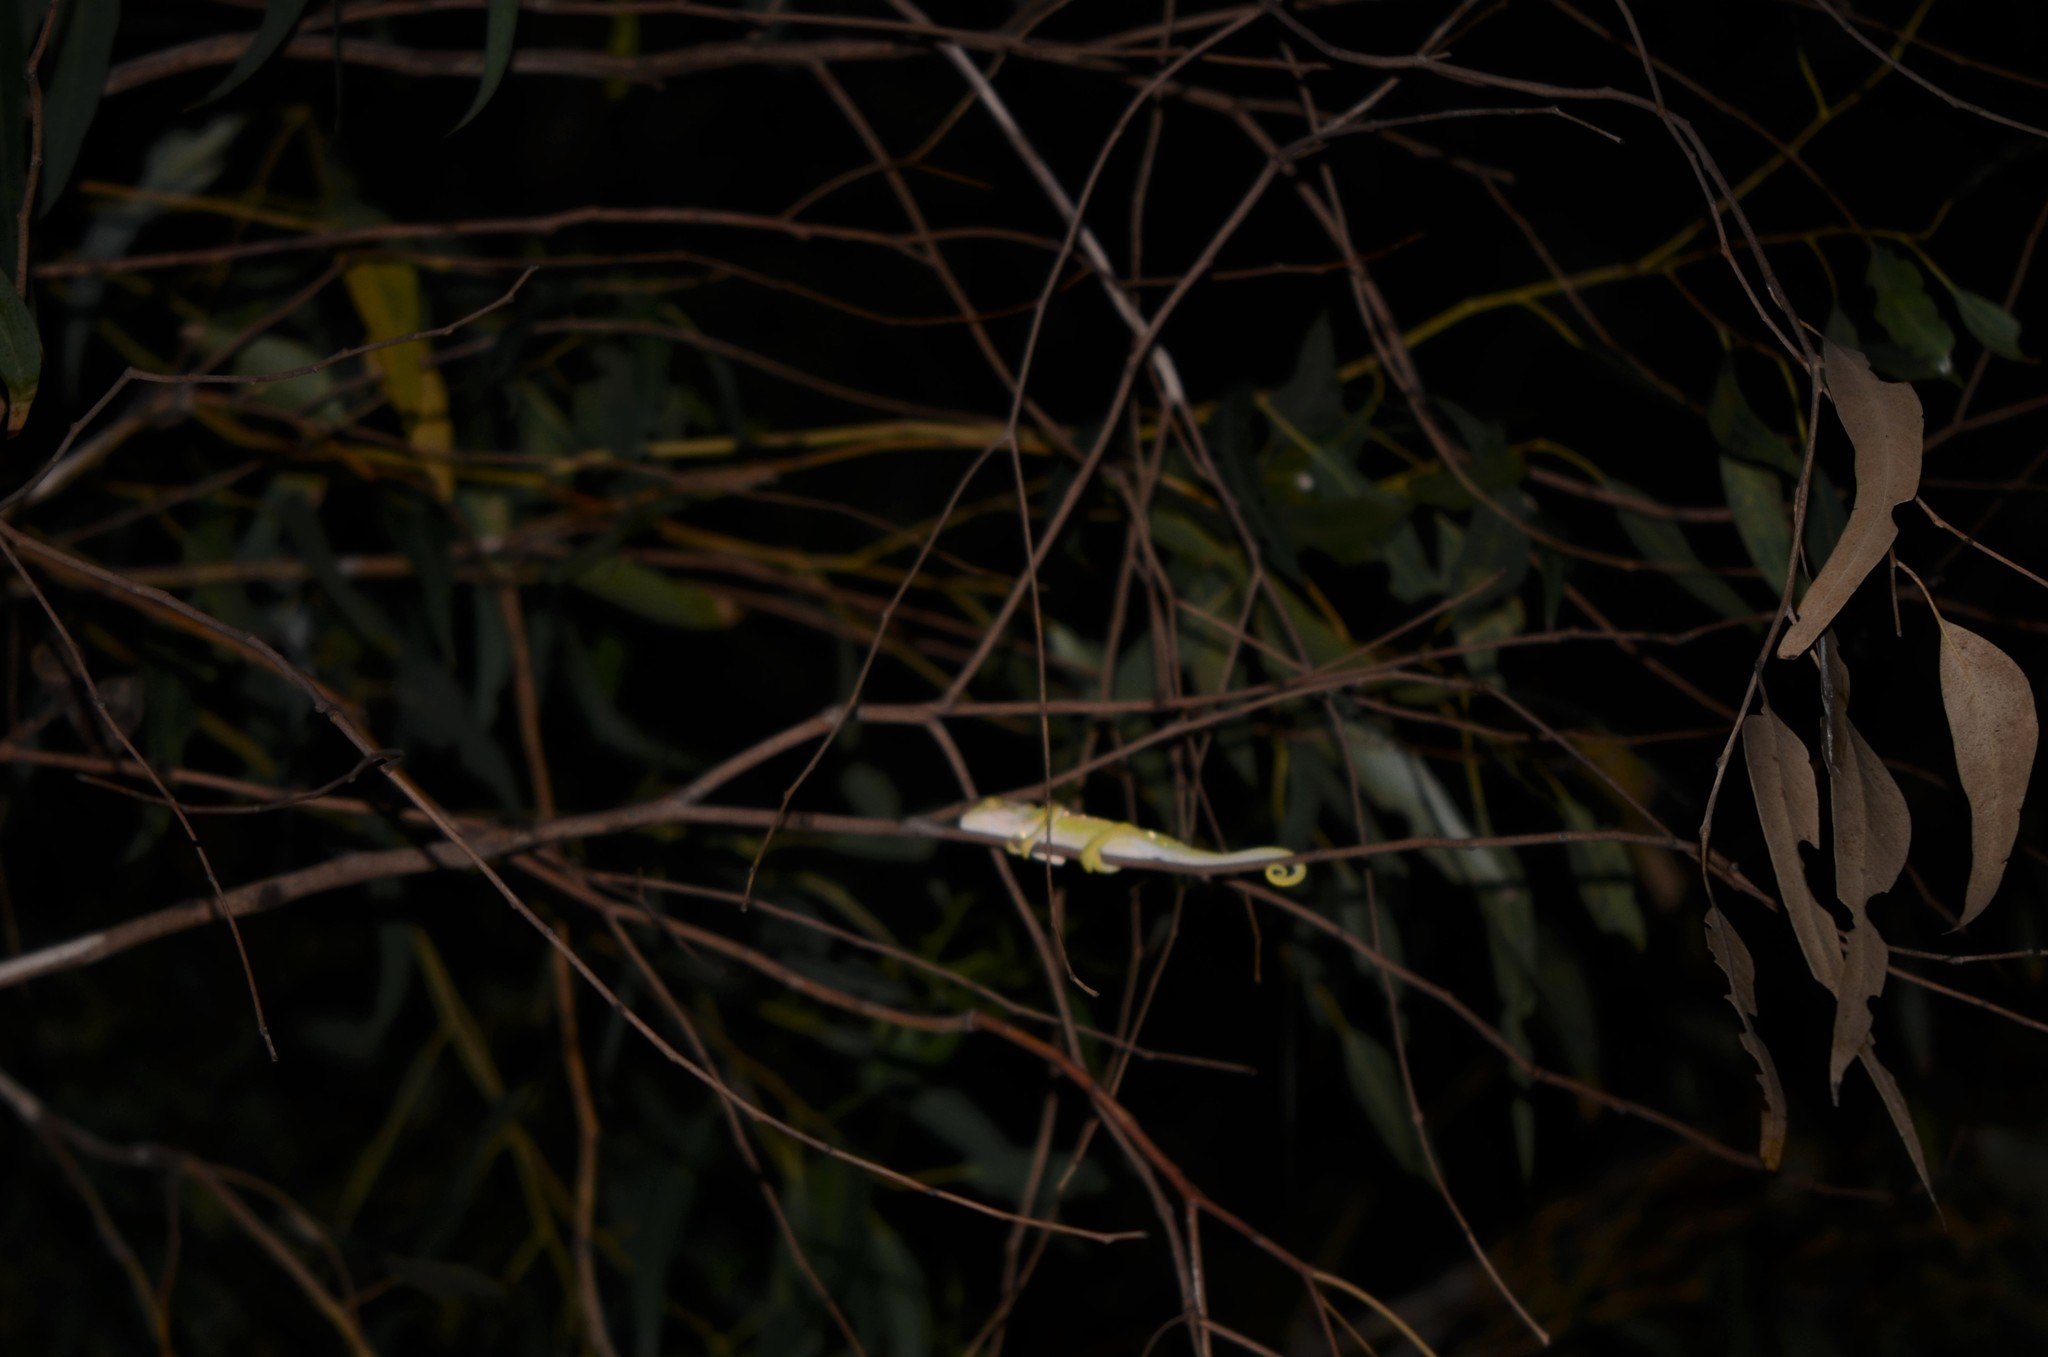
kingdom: Animalia
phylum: Chordata
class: Squamata
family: Chamaeleonidae
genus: Bradypodion
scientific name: Bradypodion pumilum
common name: Cape dwarf chameleon
